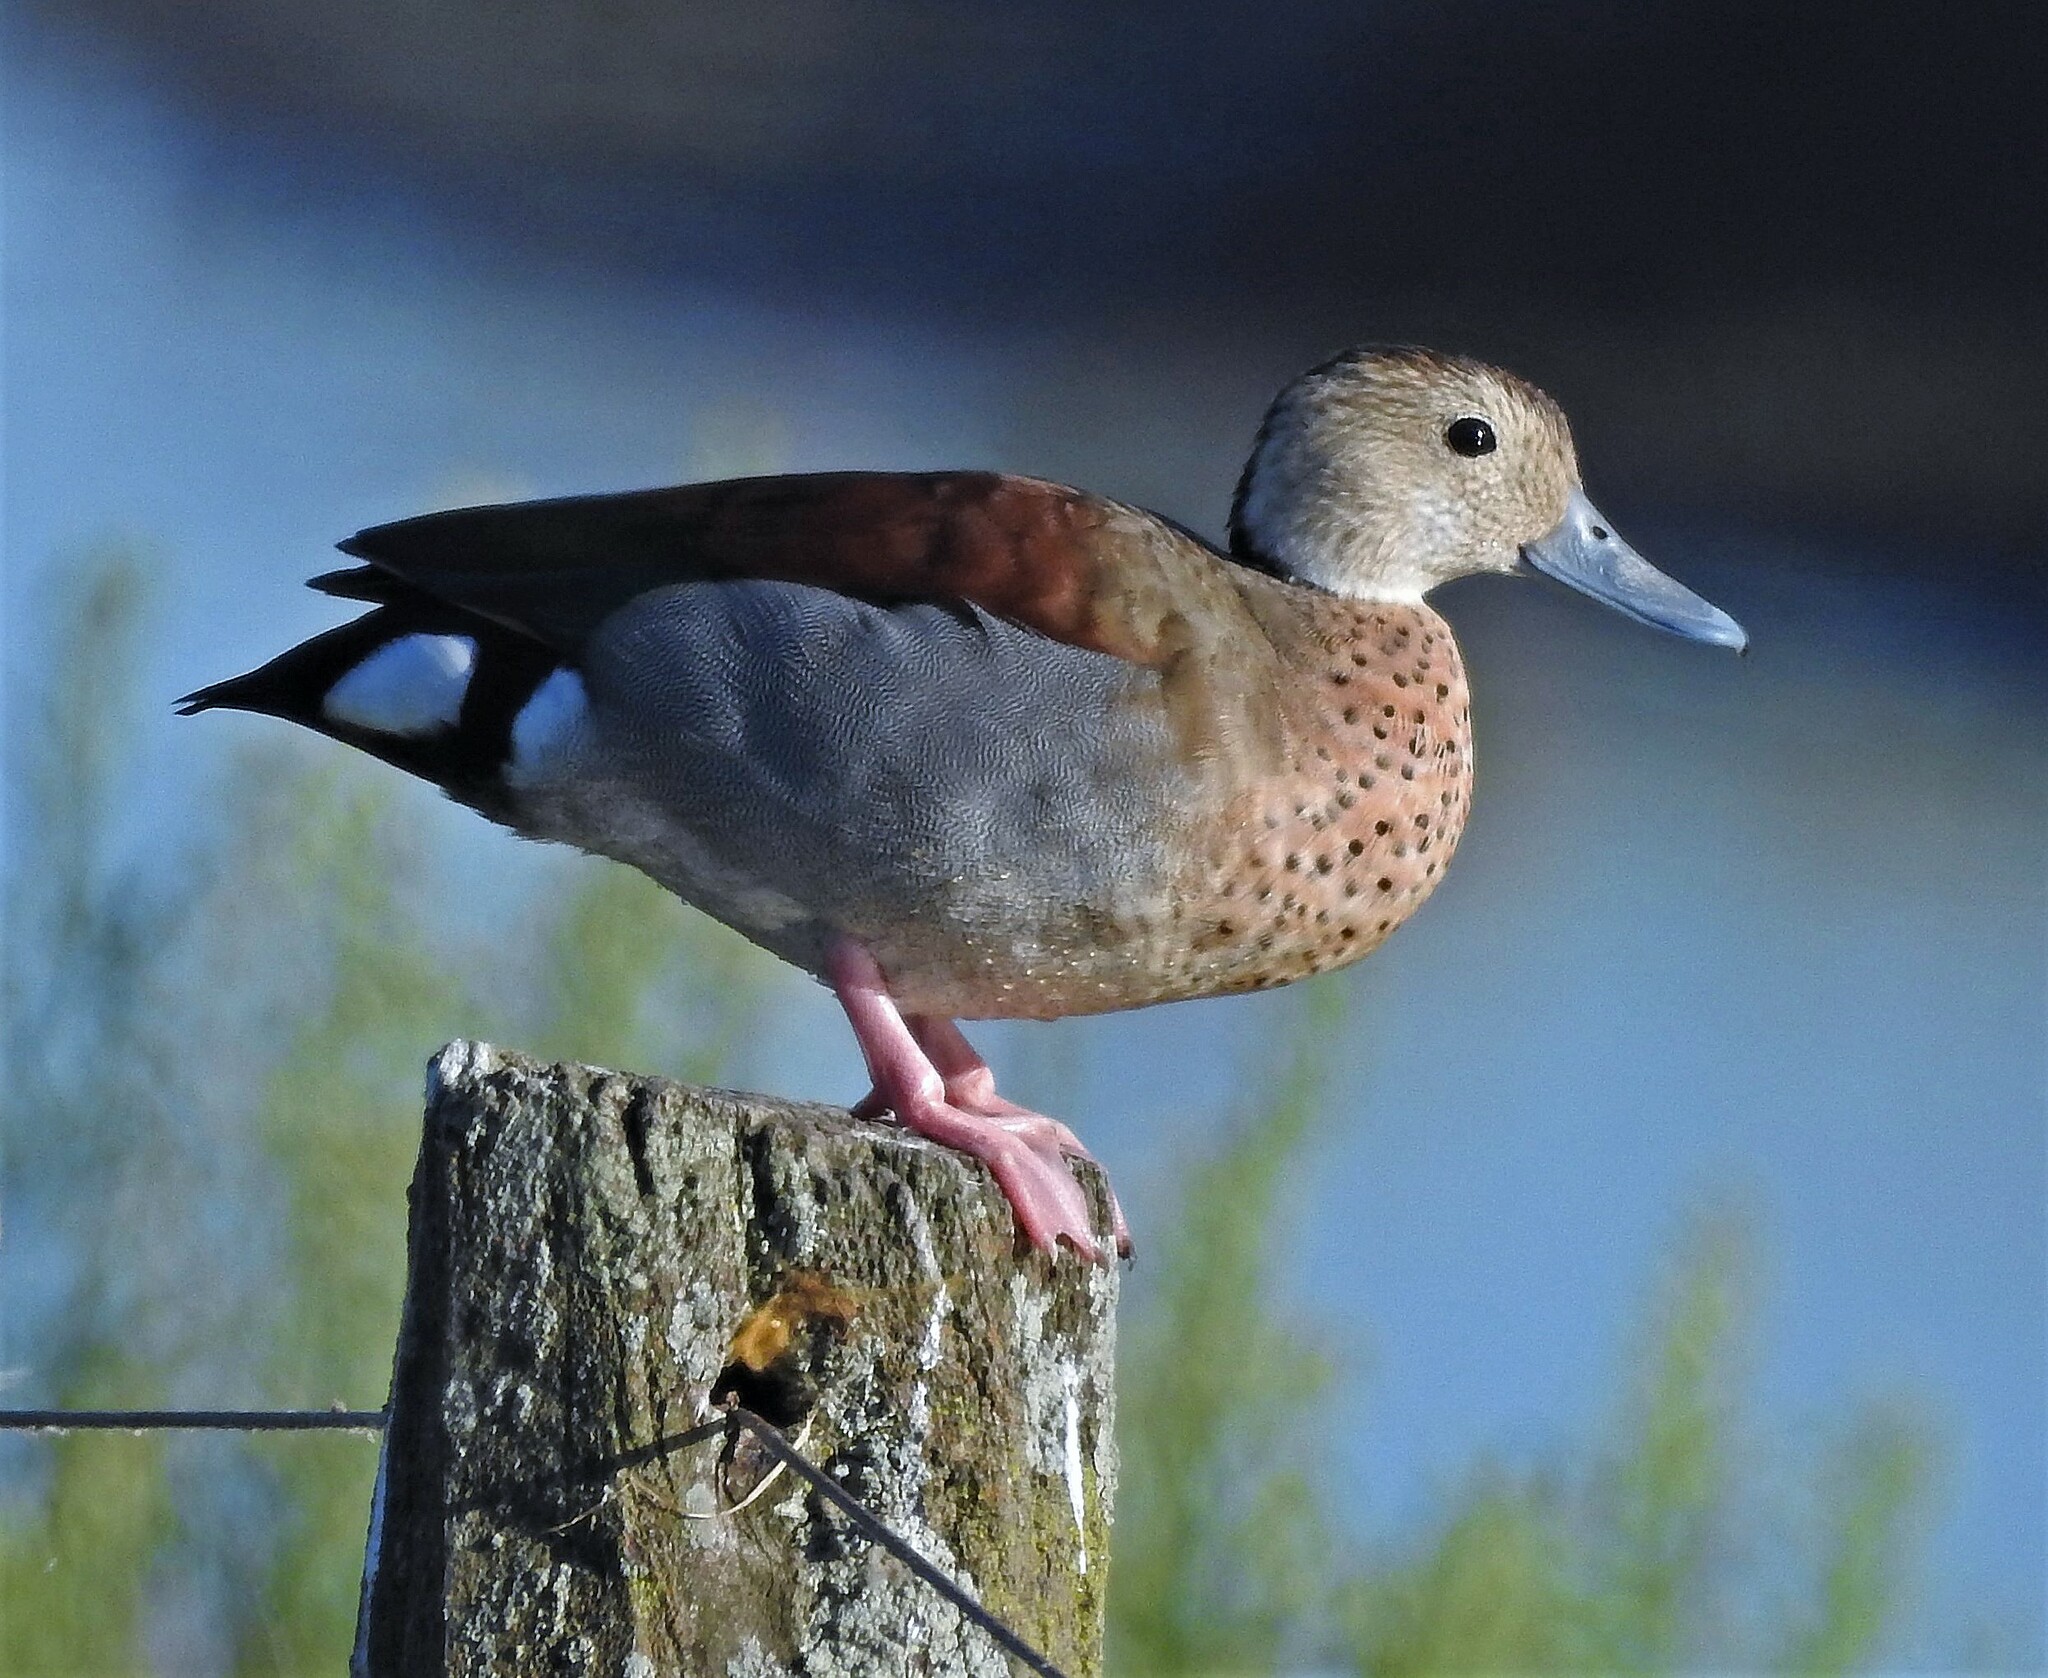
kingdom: Animalia
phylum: Chordata
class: Aves
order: Anseriformes
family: Anatidae
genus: Callonetta
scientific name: Callonetta leucophrys
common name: Ringed teal
